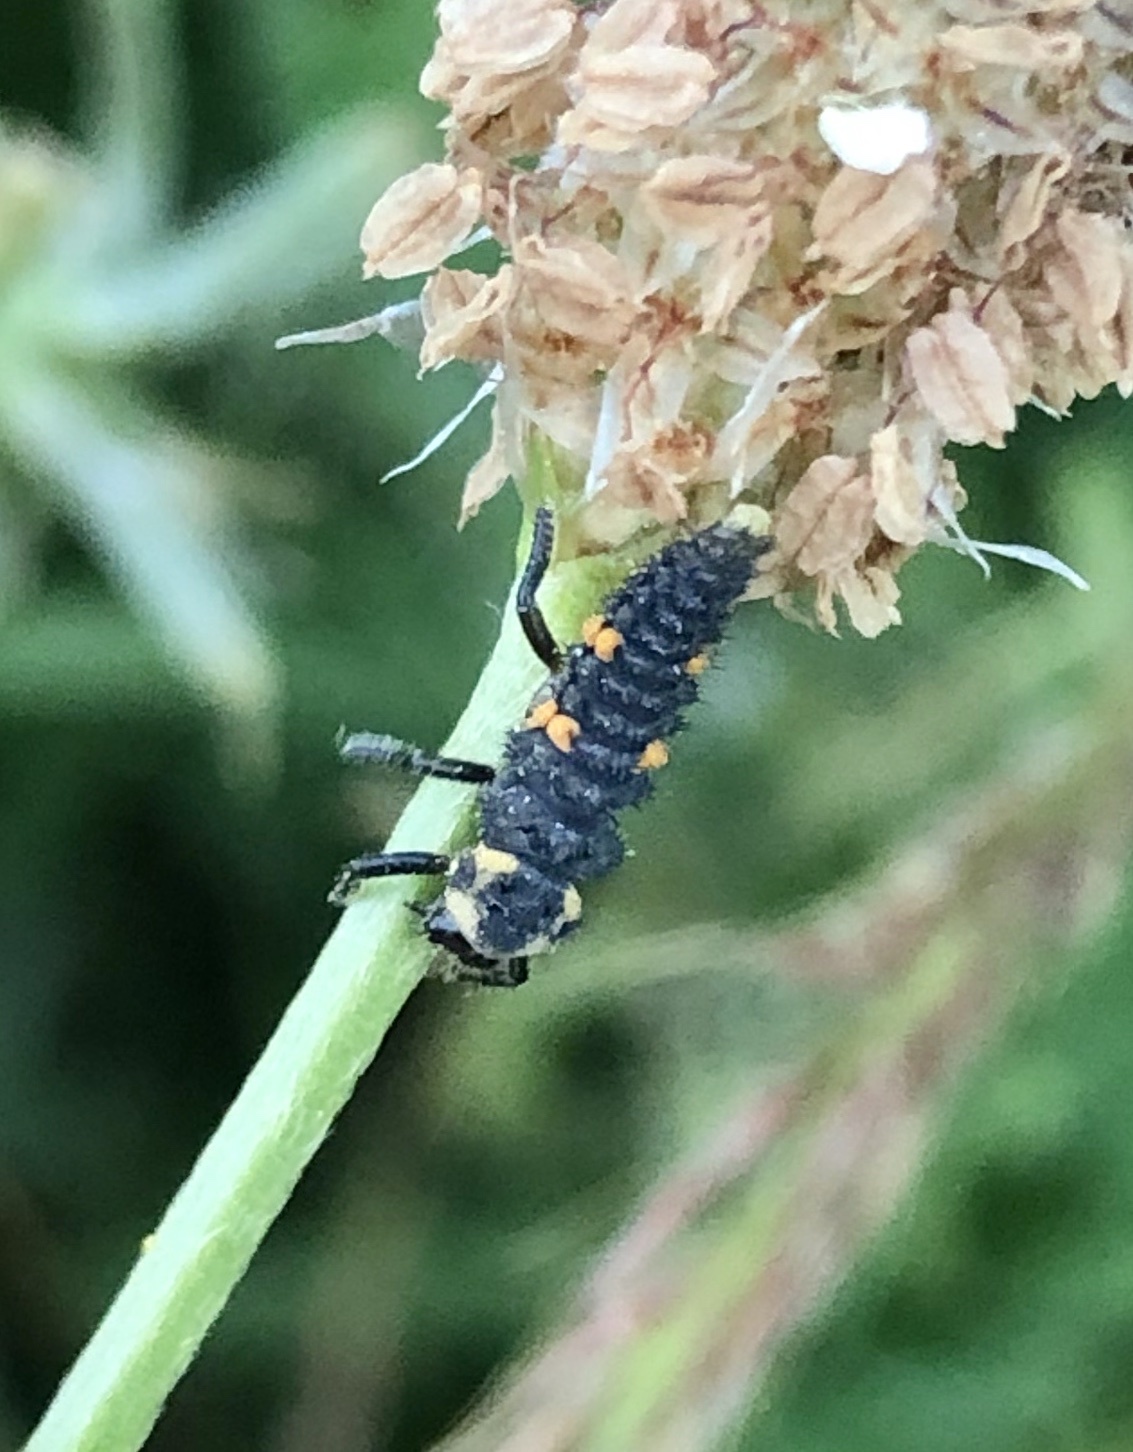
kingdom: Animalia
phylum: Arthropoda
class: Insecta
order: Coleoptera
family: Coccinellidae
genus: Coccinella
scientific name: Coccinella septempunctata
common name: Sevenspotted lady beetle
